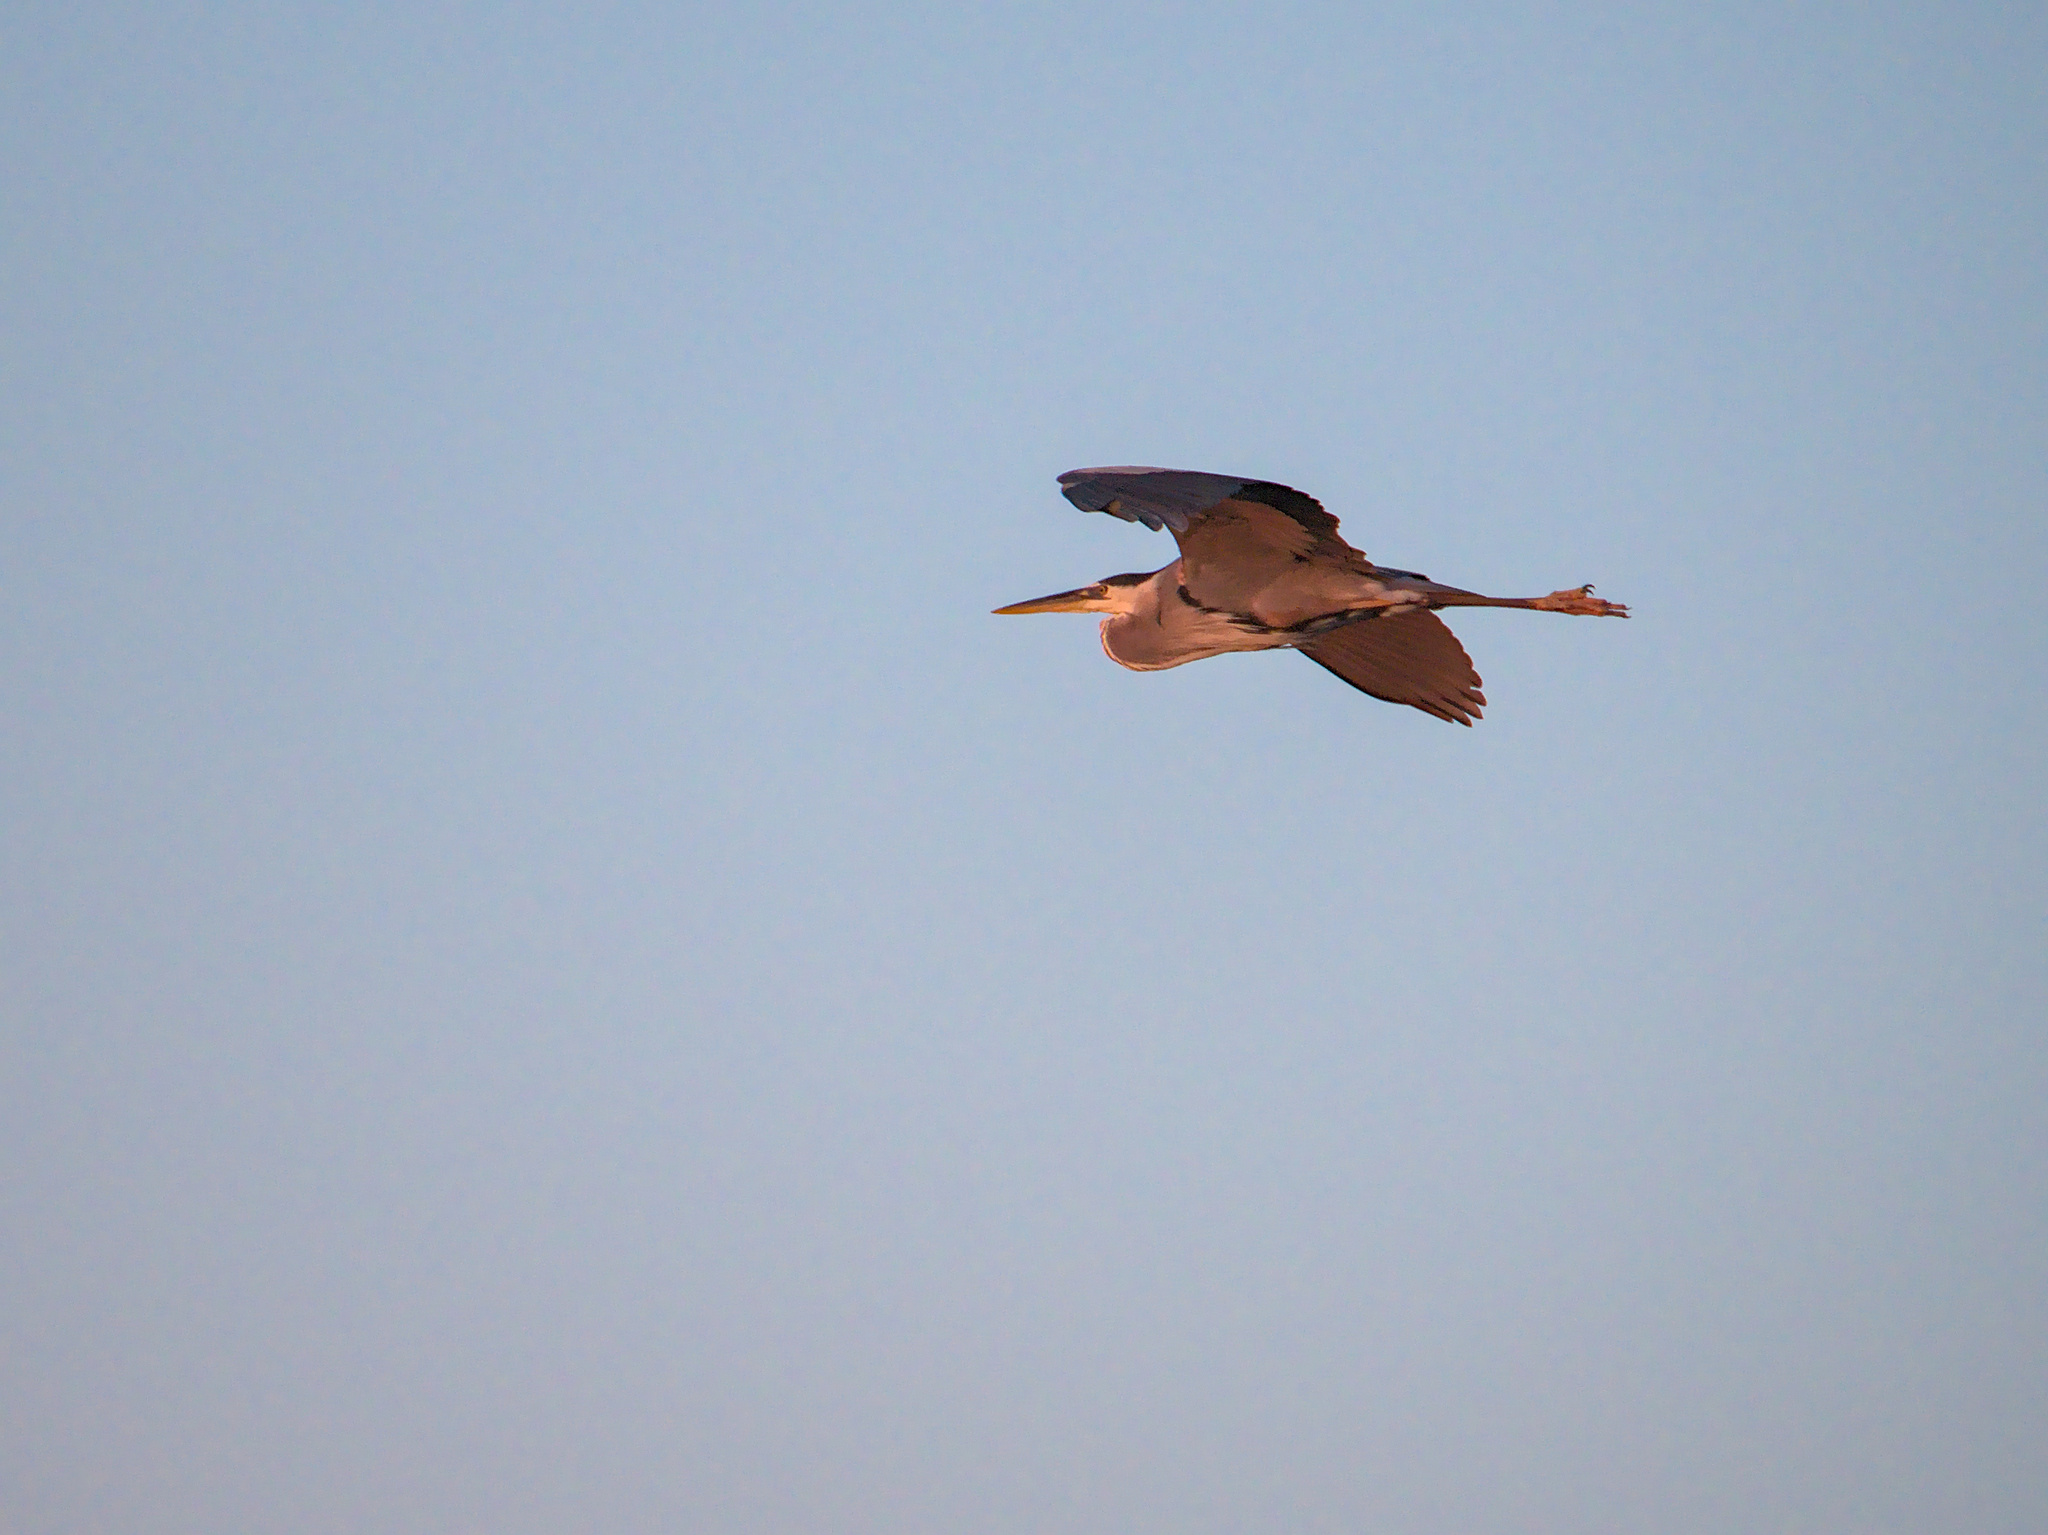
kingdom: Animalia
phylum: Chordata
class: Aves
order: Pelecaniformes
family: Ardeidae
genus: Ardea
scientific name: Ardea herodias
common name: Great blue heron
